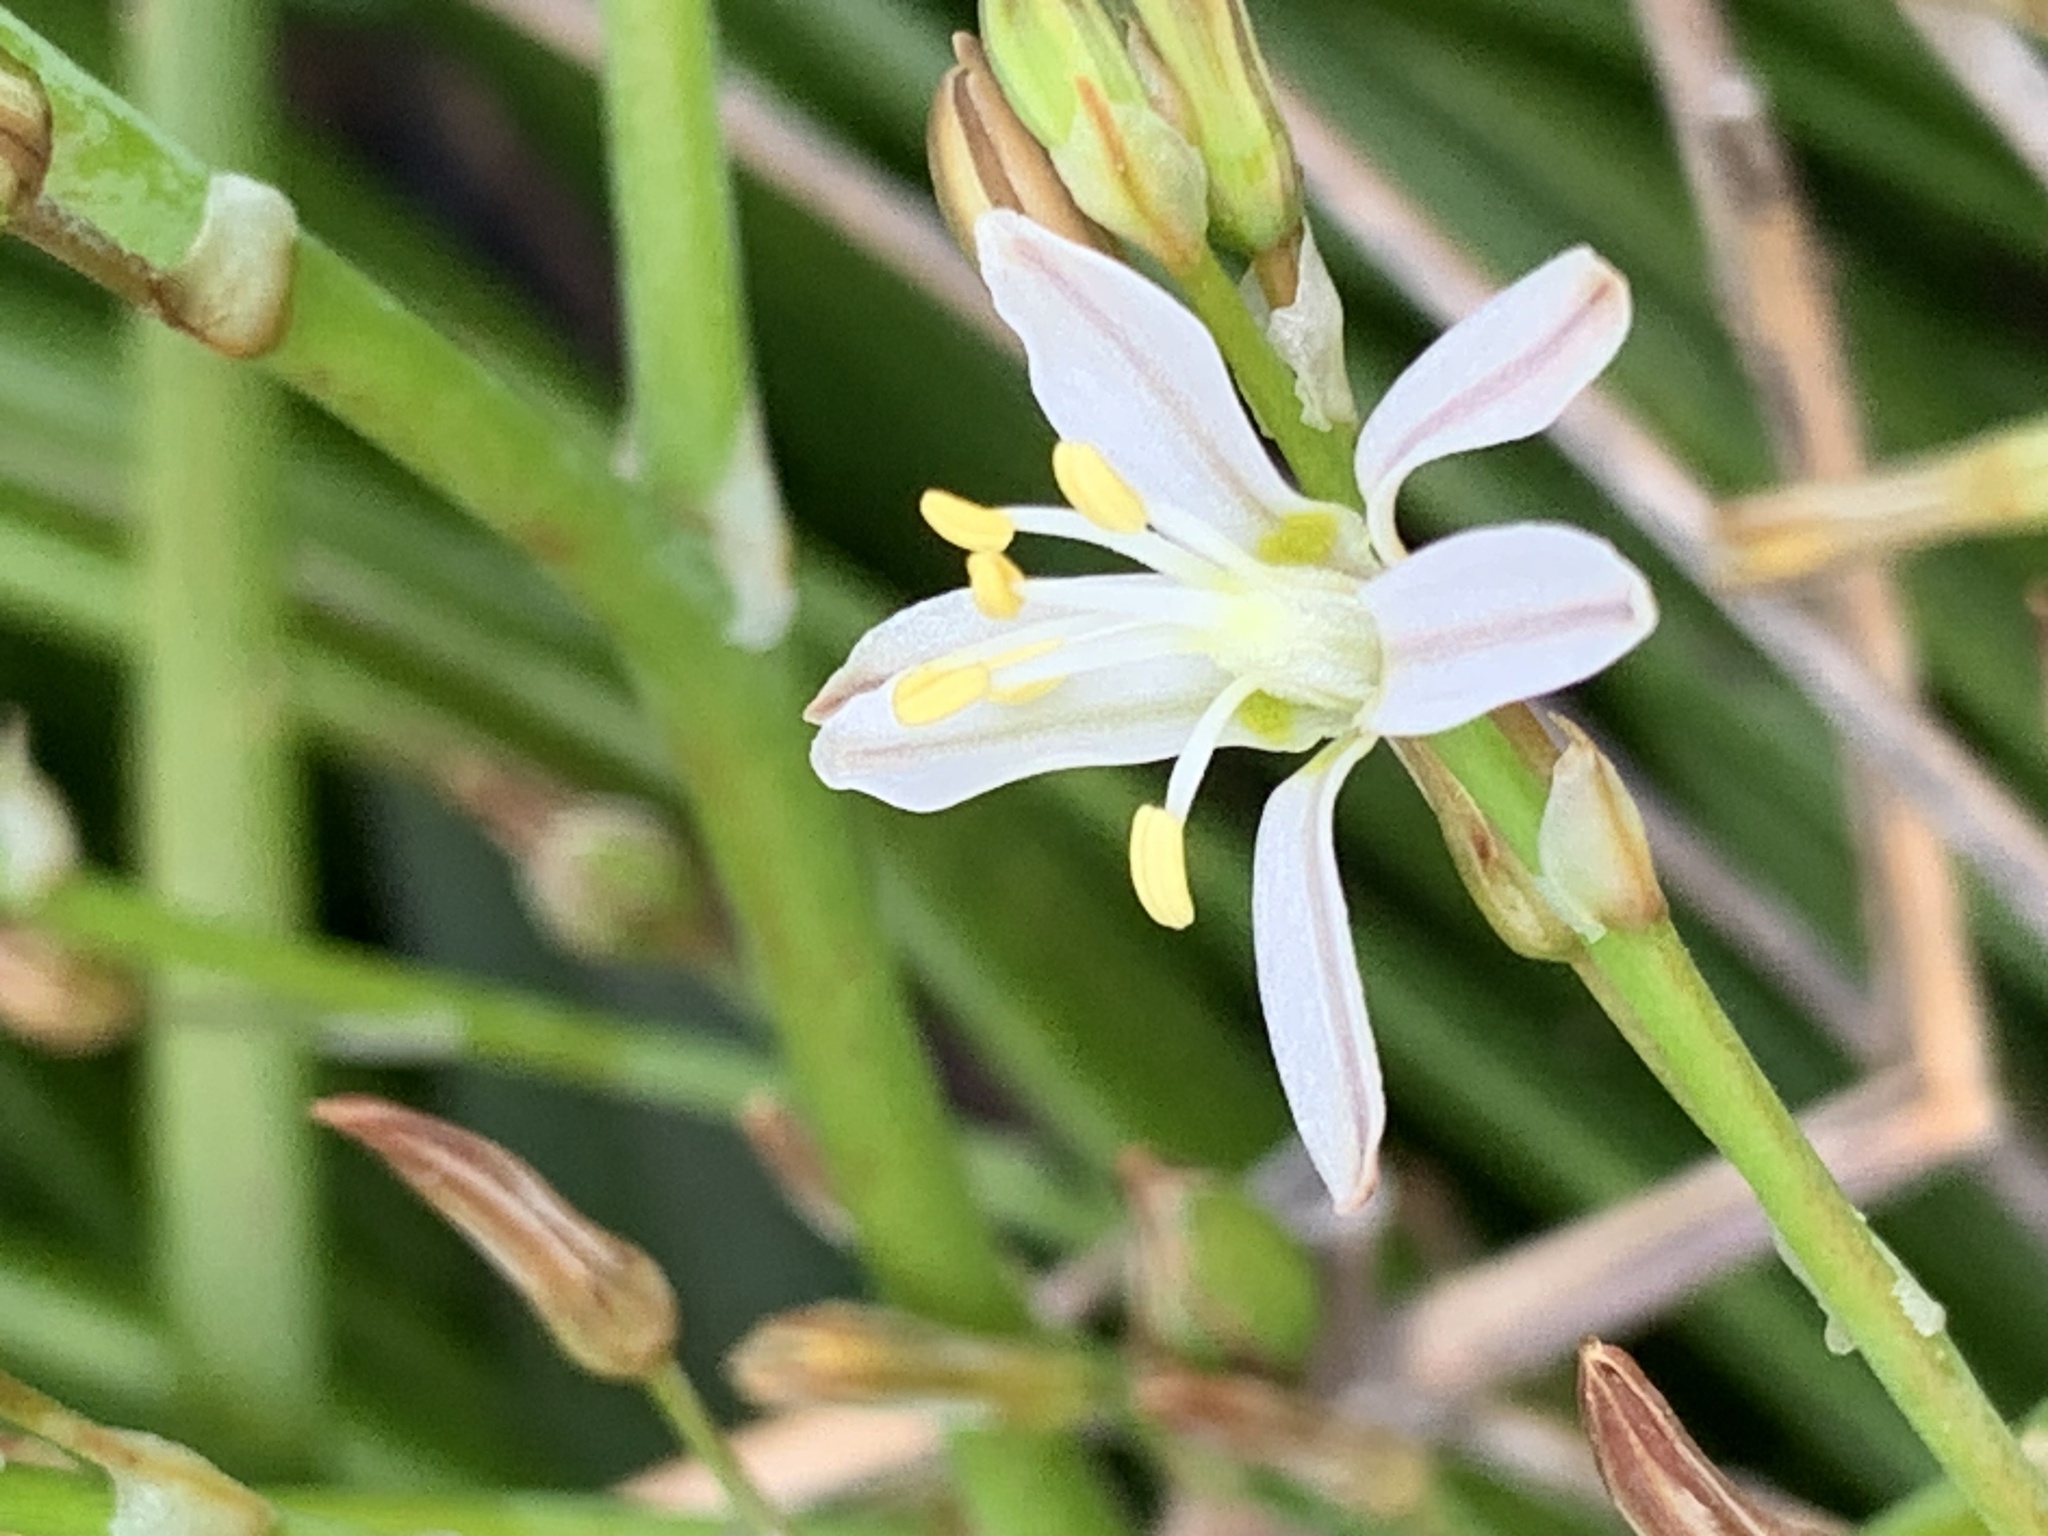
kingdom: Plantae
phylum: Tracheophyta
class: Liliopsida
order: Asparagales
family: Asphodelaceae
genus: Trachyandra
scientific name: Trachyandra divaricata
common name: Dune onionweed
